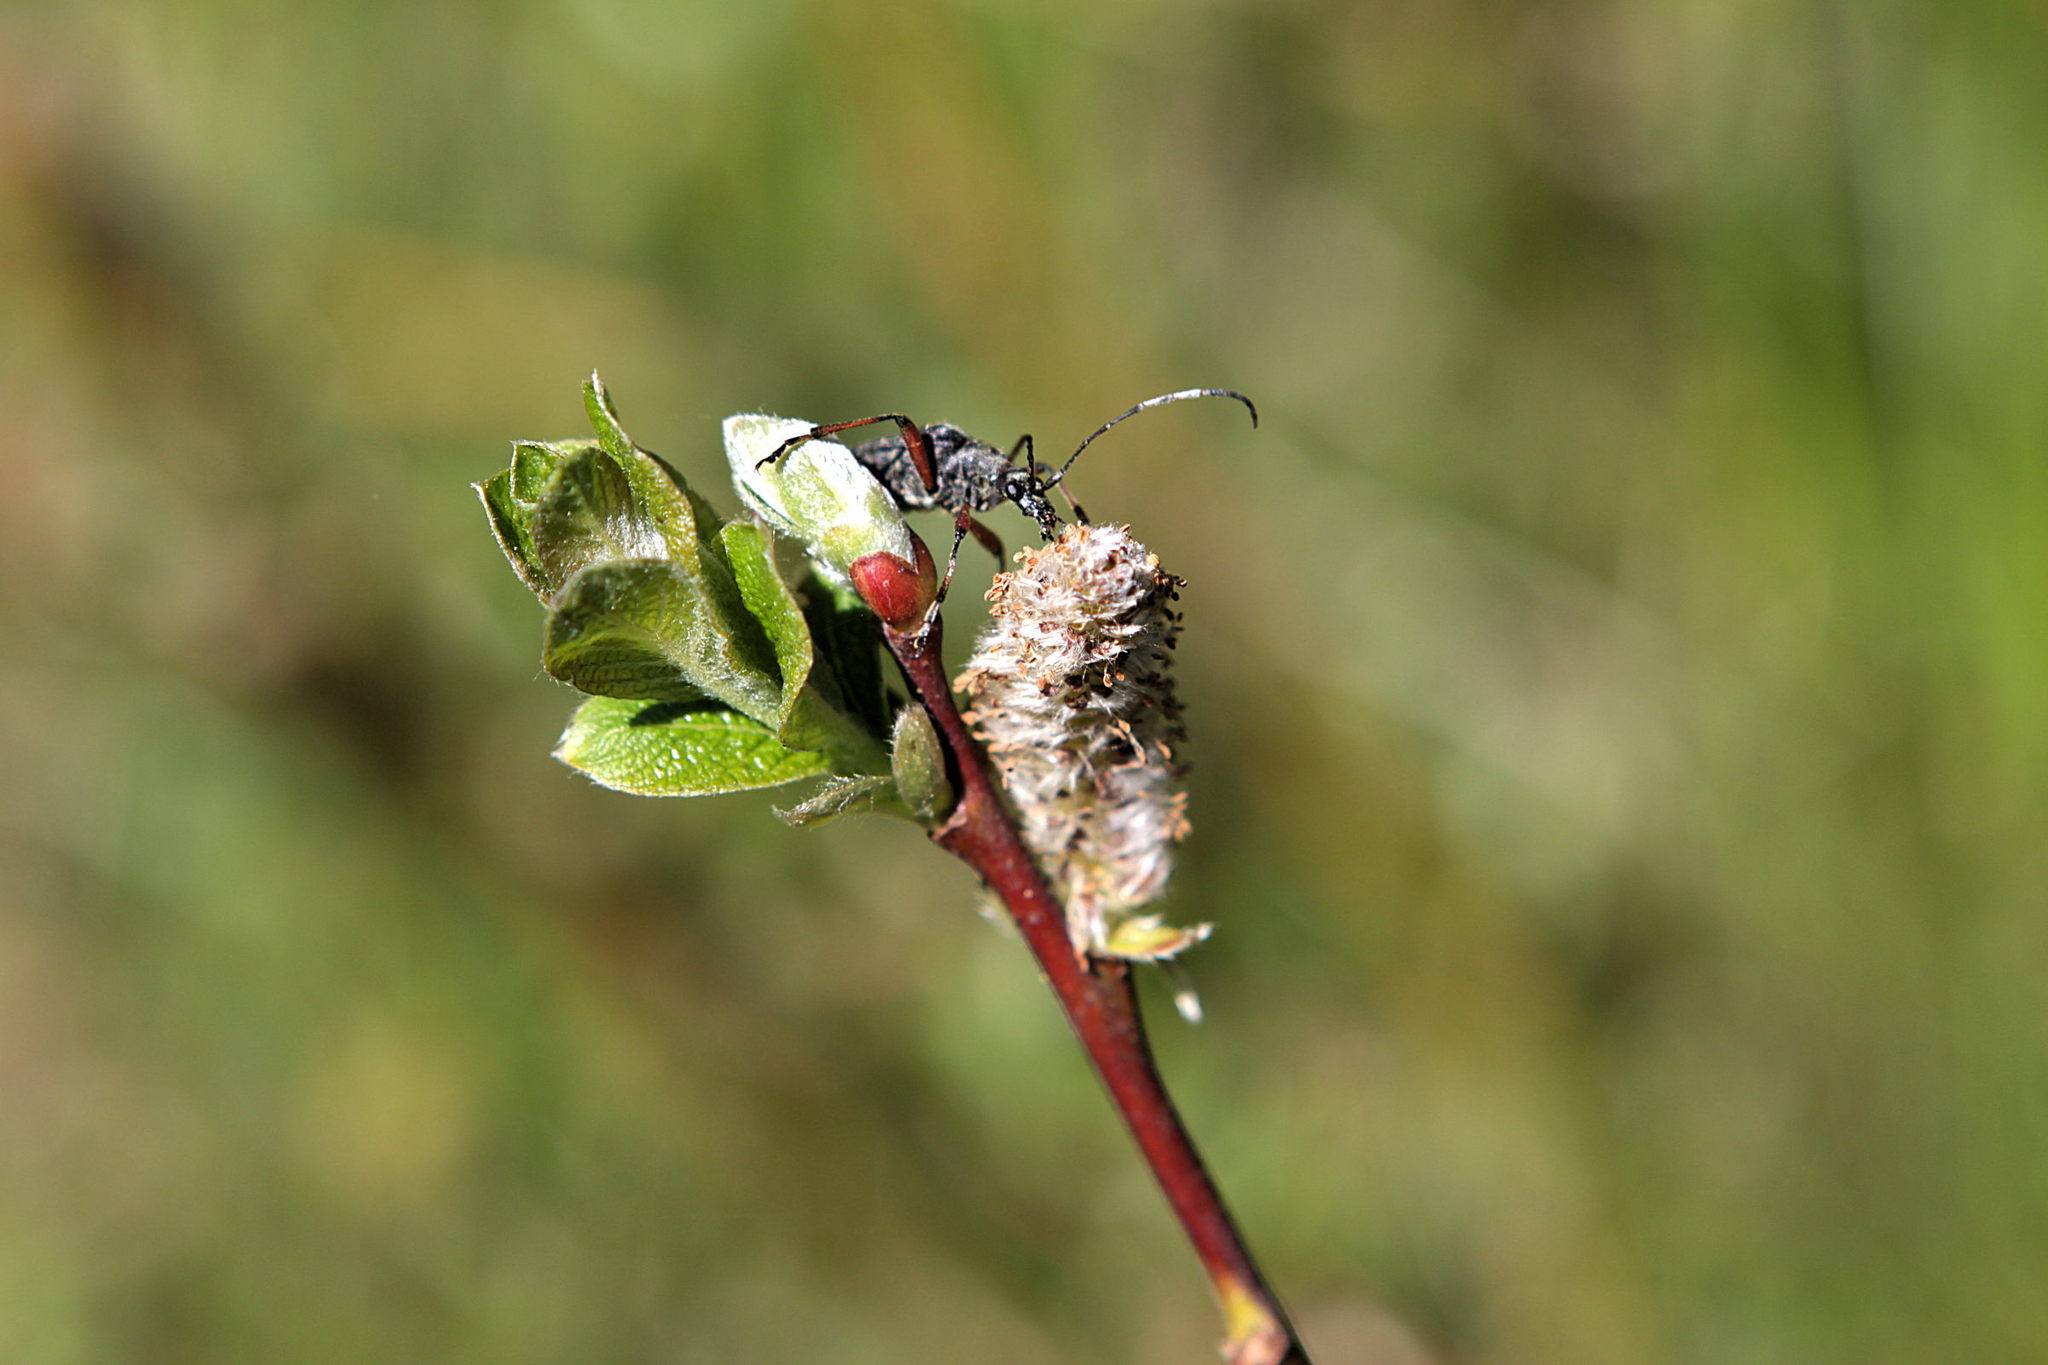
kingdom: Animalia
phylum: Arthropoda
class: Insecta
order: Coleoptera
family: Cerambycidae
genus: Evodinus
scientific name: Evodinus clathratus
